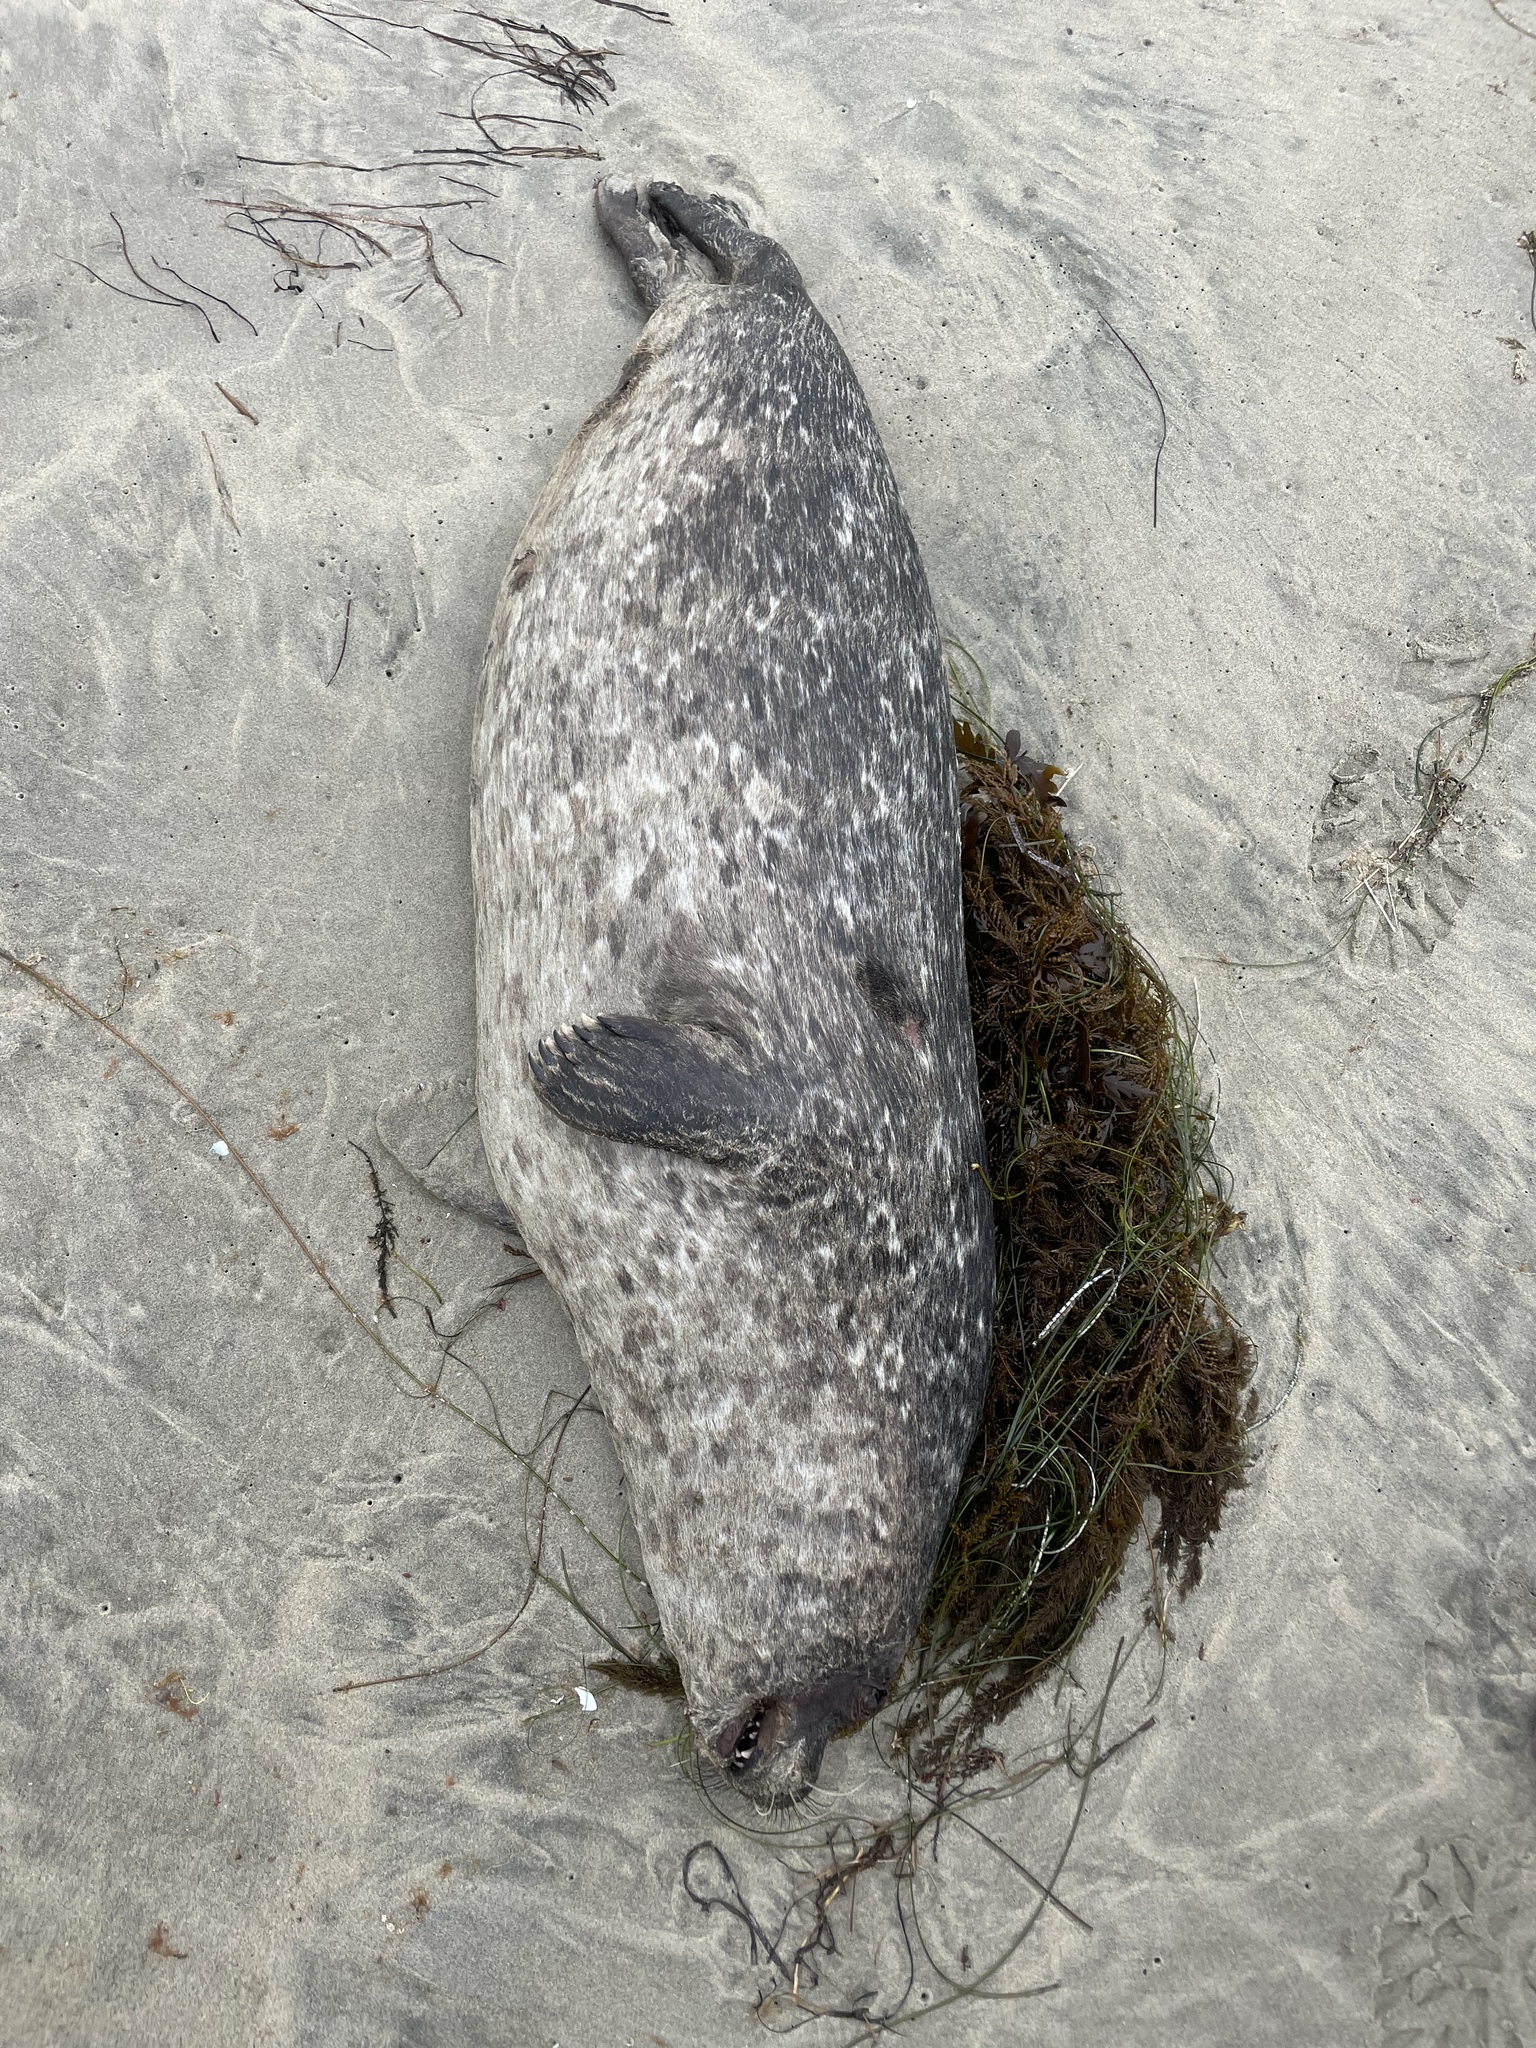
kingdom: Animalia
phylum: Chordata
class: Mammalia
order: Carnivora
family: Phocidae
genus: Phoca
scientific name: Phoca vitulina
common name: Harbor seal
